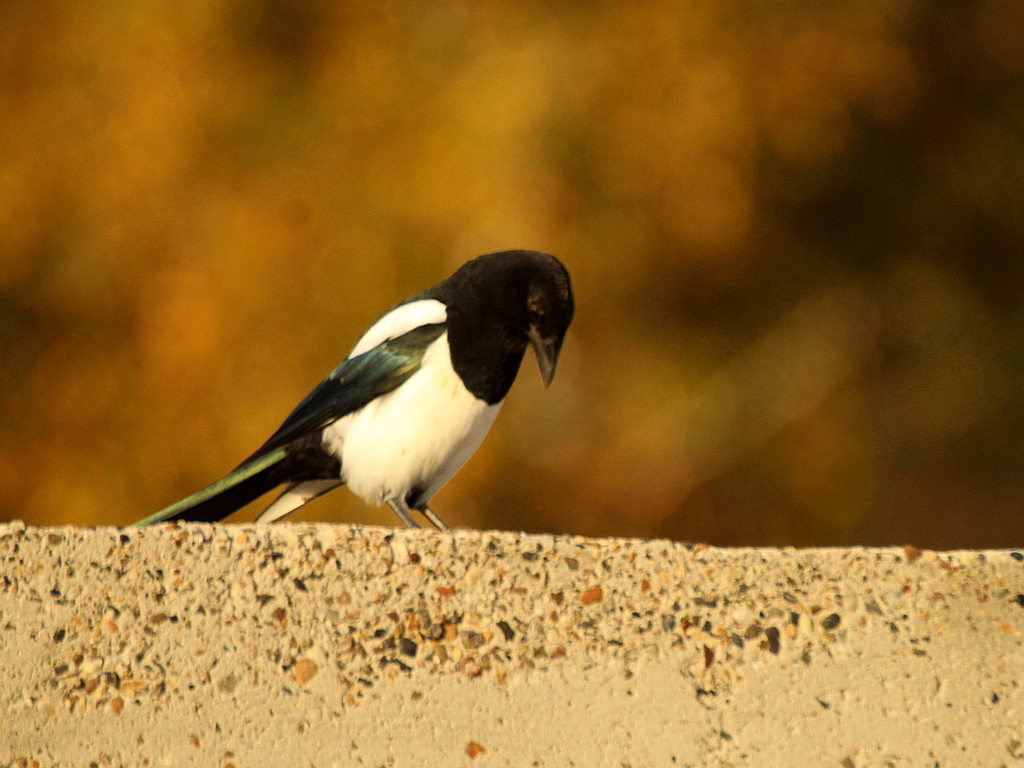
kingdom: Animalia
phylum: Chordata
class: Aves
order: Passeriformes
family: Corvidae
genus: Pica
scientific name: Pica pica
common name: Eurasian magpie
